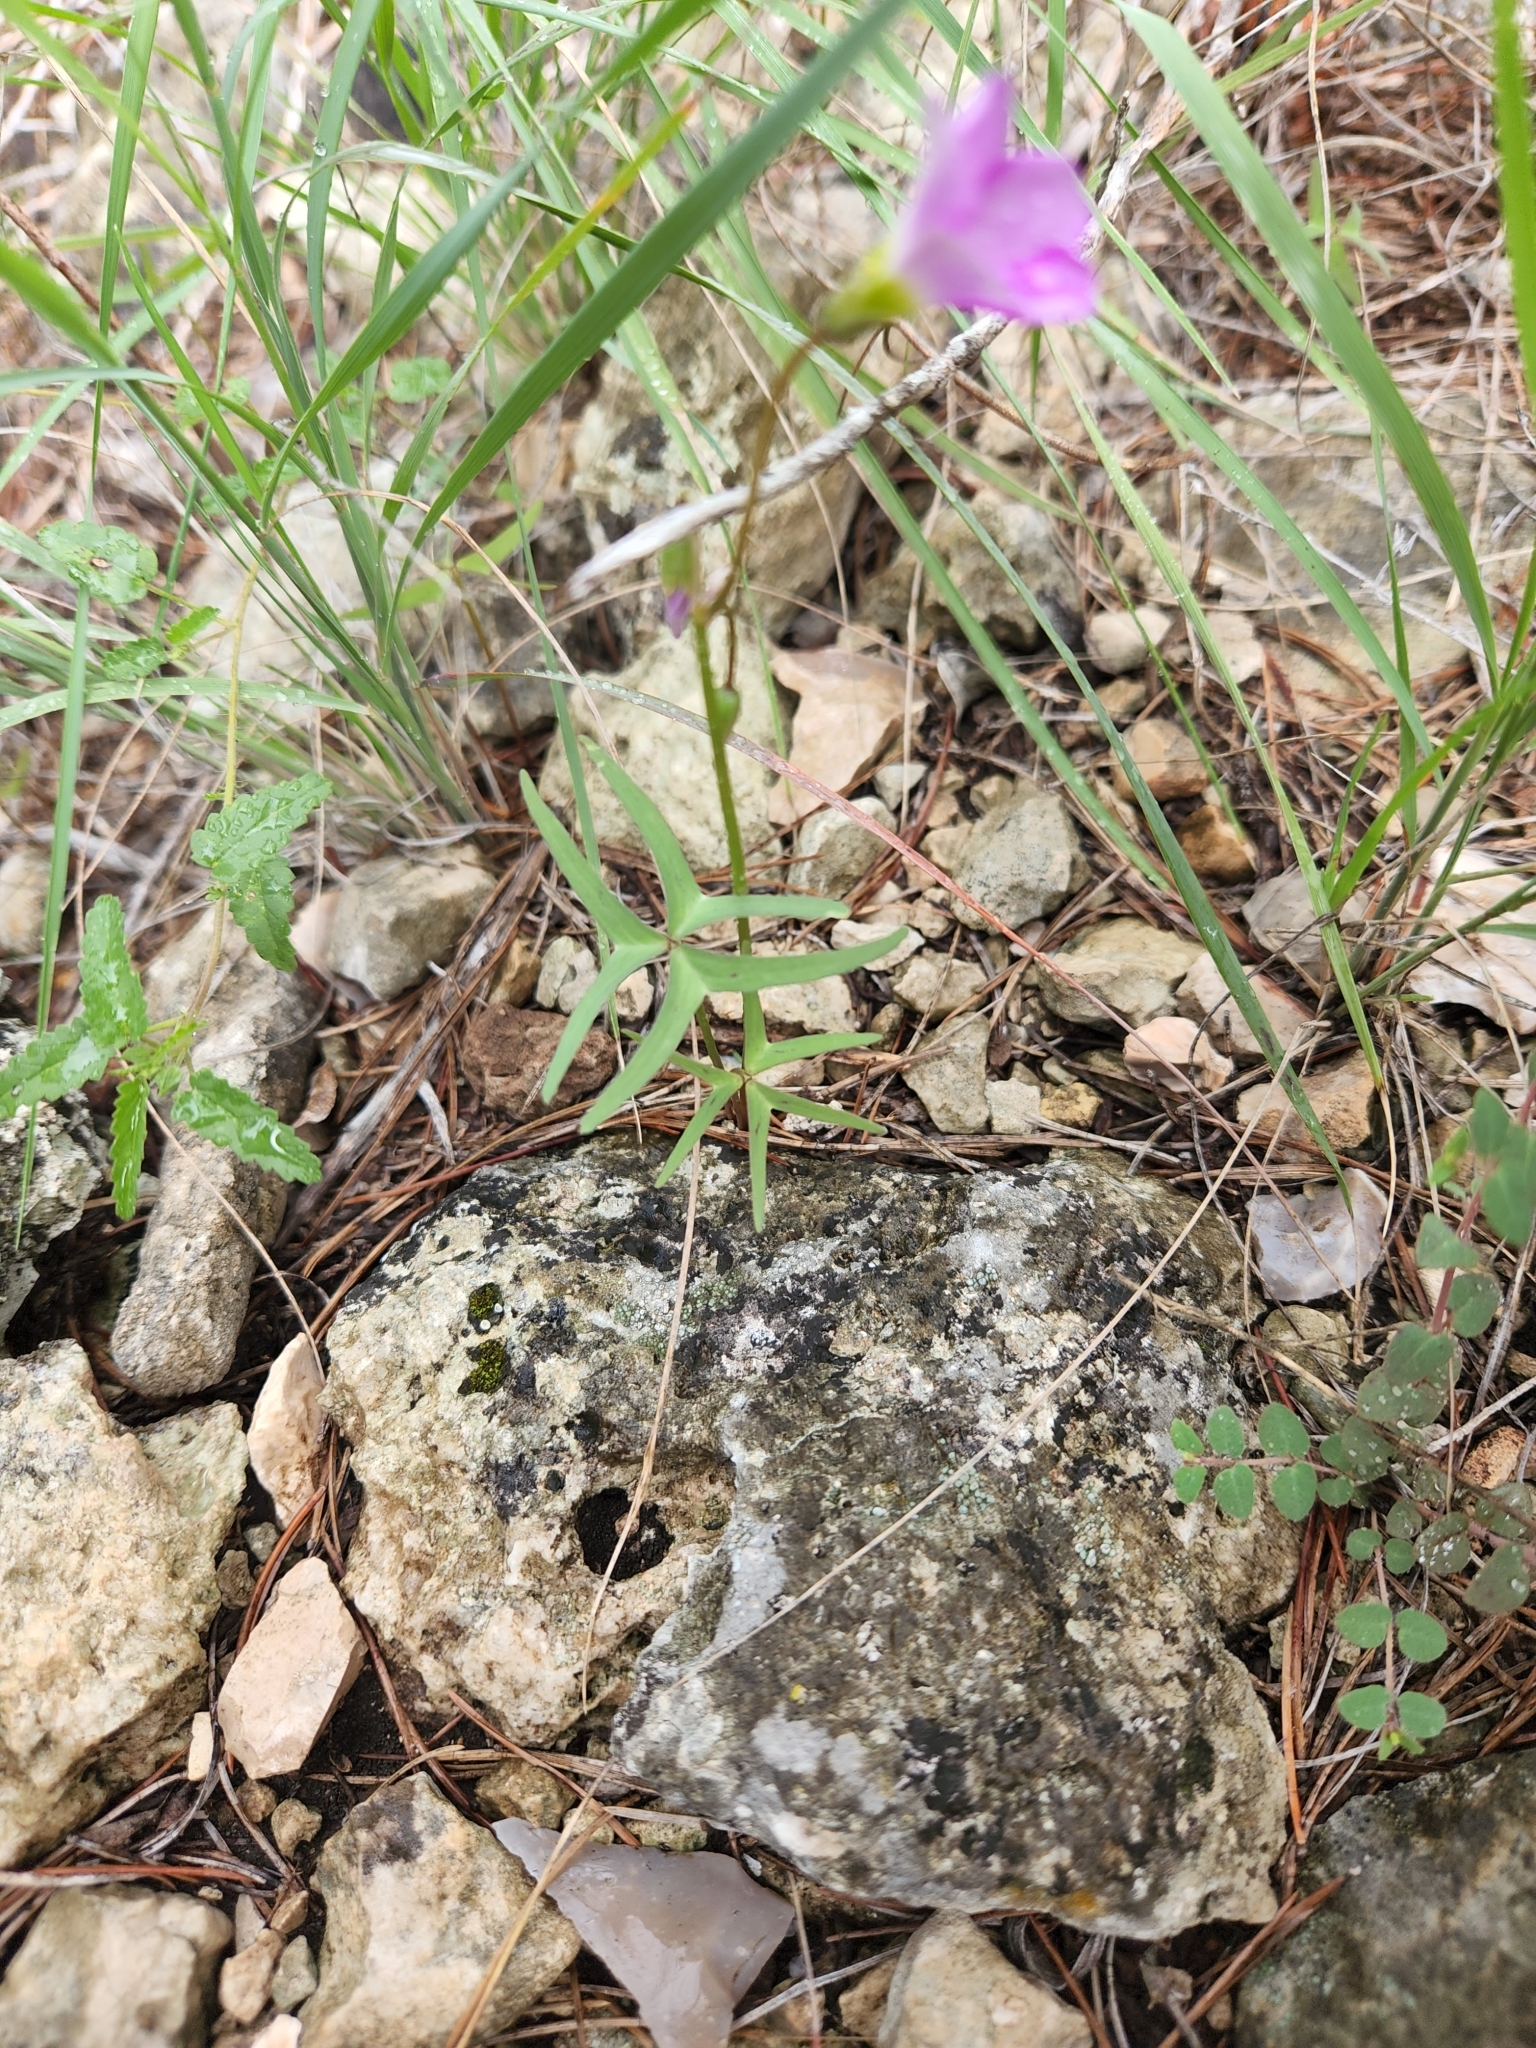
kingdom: Plantae
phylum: Tracheophyta
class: Magnoliopsida
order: Oxalidales
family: Oxalidaceae
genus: Oxalis
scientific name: Oxalis drummondii
